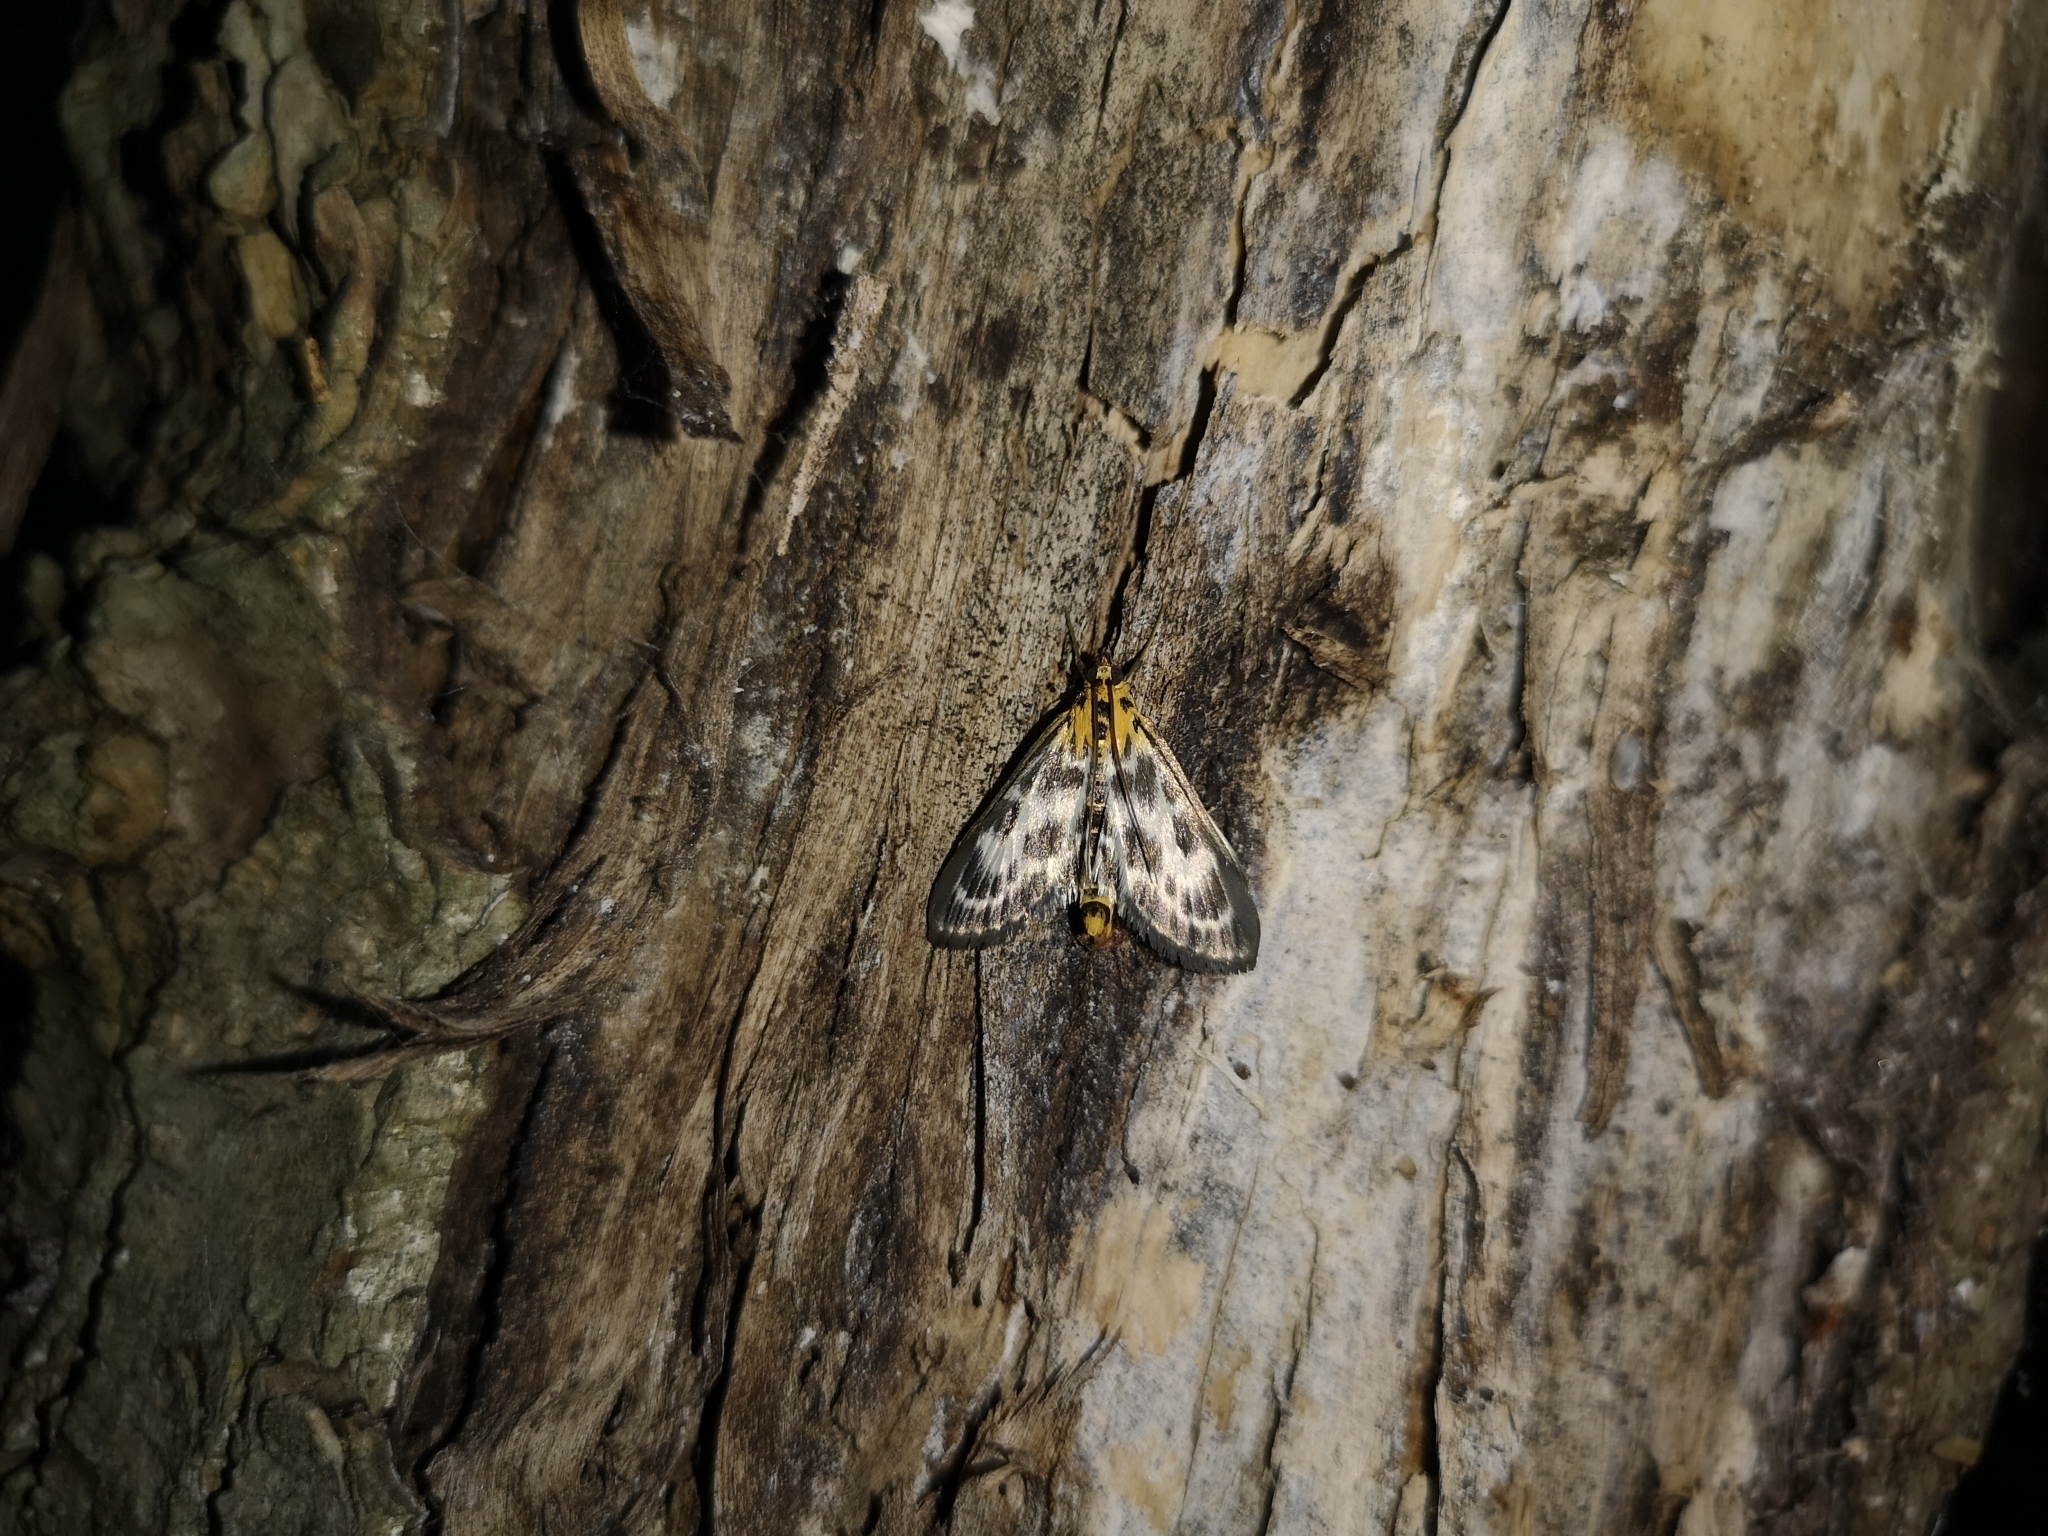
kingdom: Animalia
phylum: Arthropoda
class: Insecta
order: Lepidoptera
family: Crambidae
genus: Anania
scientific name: Anania hortulata
